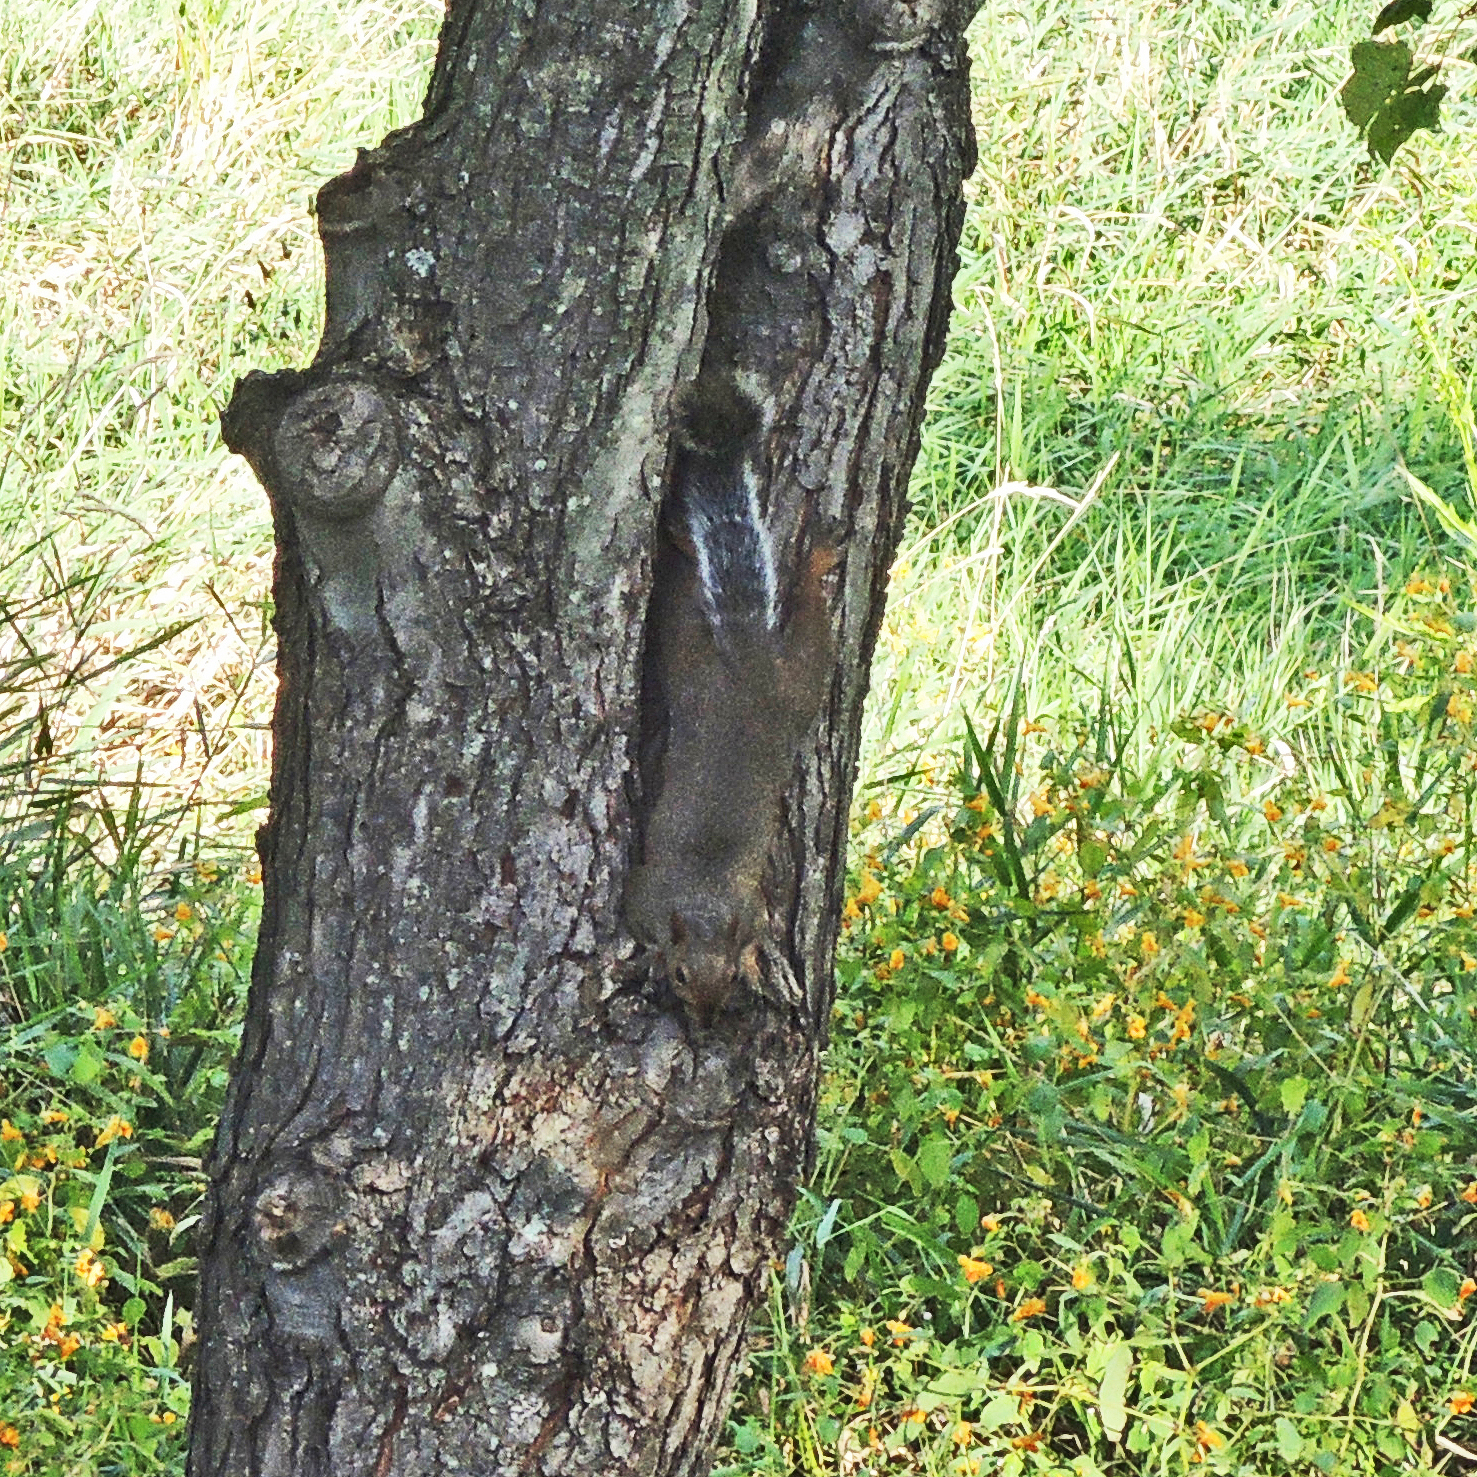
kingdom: Animalia
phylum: Chordata
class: Mammalia
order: Rodentia
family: Sciuridae
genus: Sciurus
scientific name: Sciurus carolinensis
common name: Eastern gray squirrel
